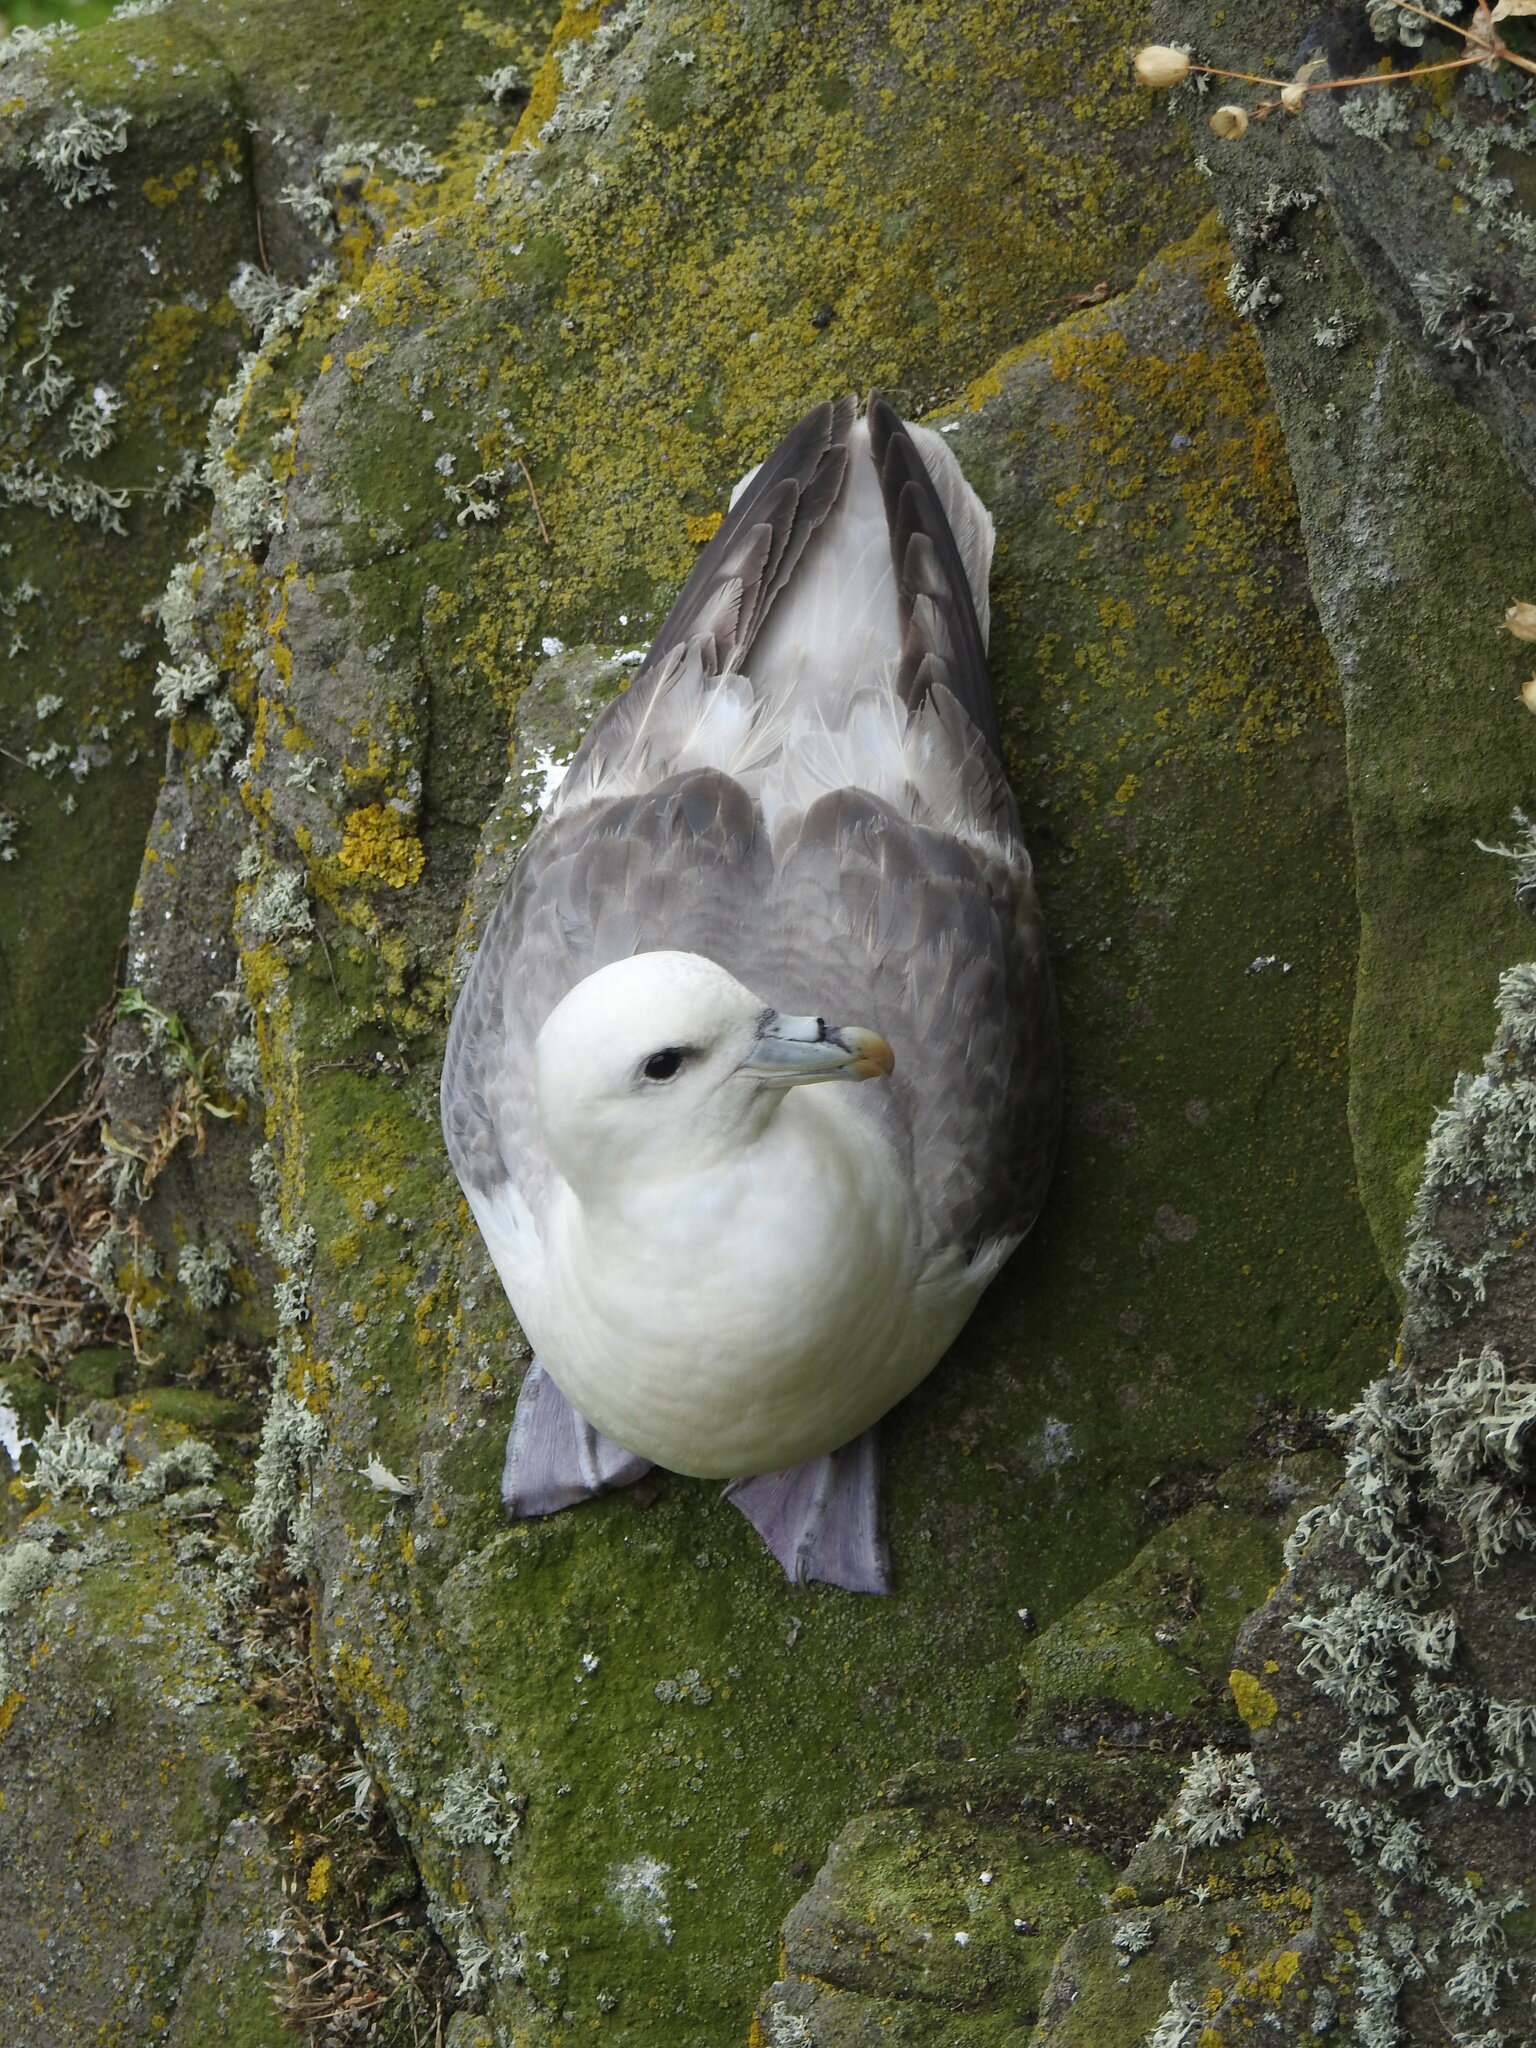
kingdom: Animalia
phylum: Chordata
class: Aves
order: Procellariiformes
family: Procellariidae
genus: Fulmarus
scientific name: Fulmarus glacialis
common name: Northern fulmar
